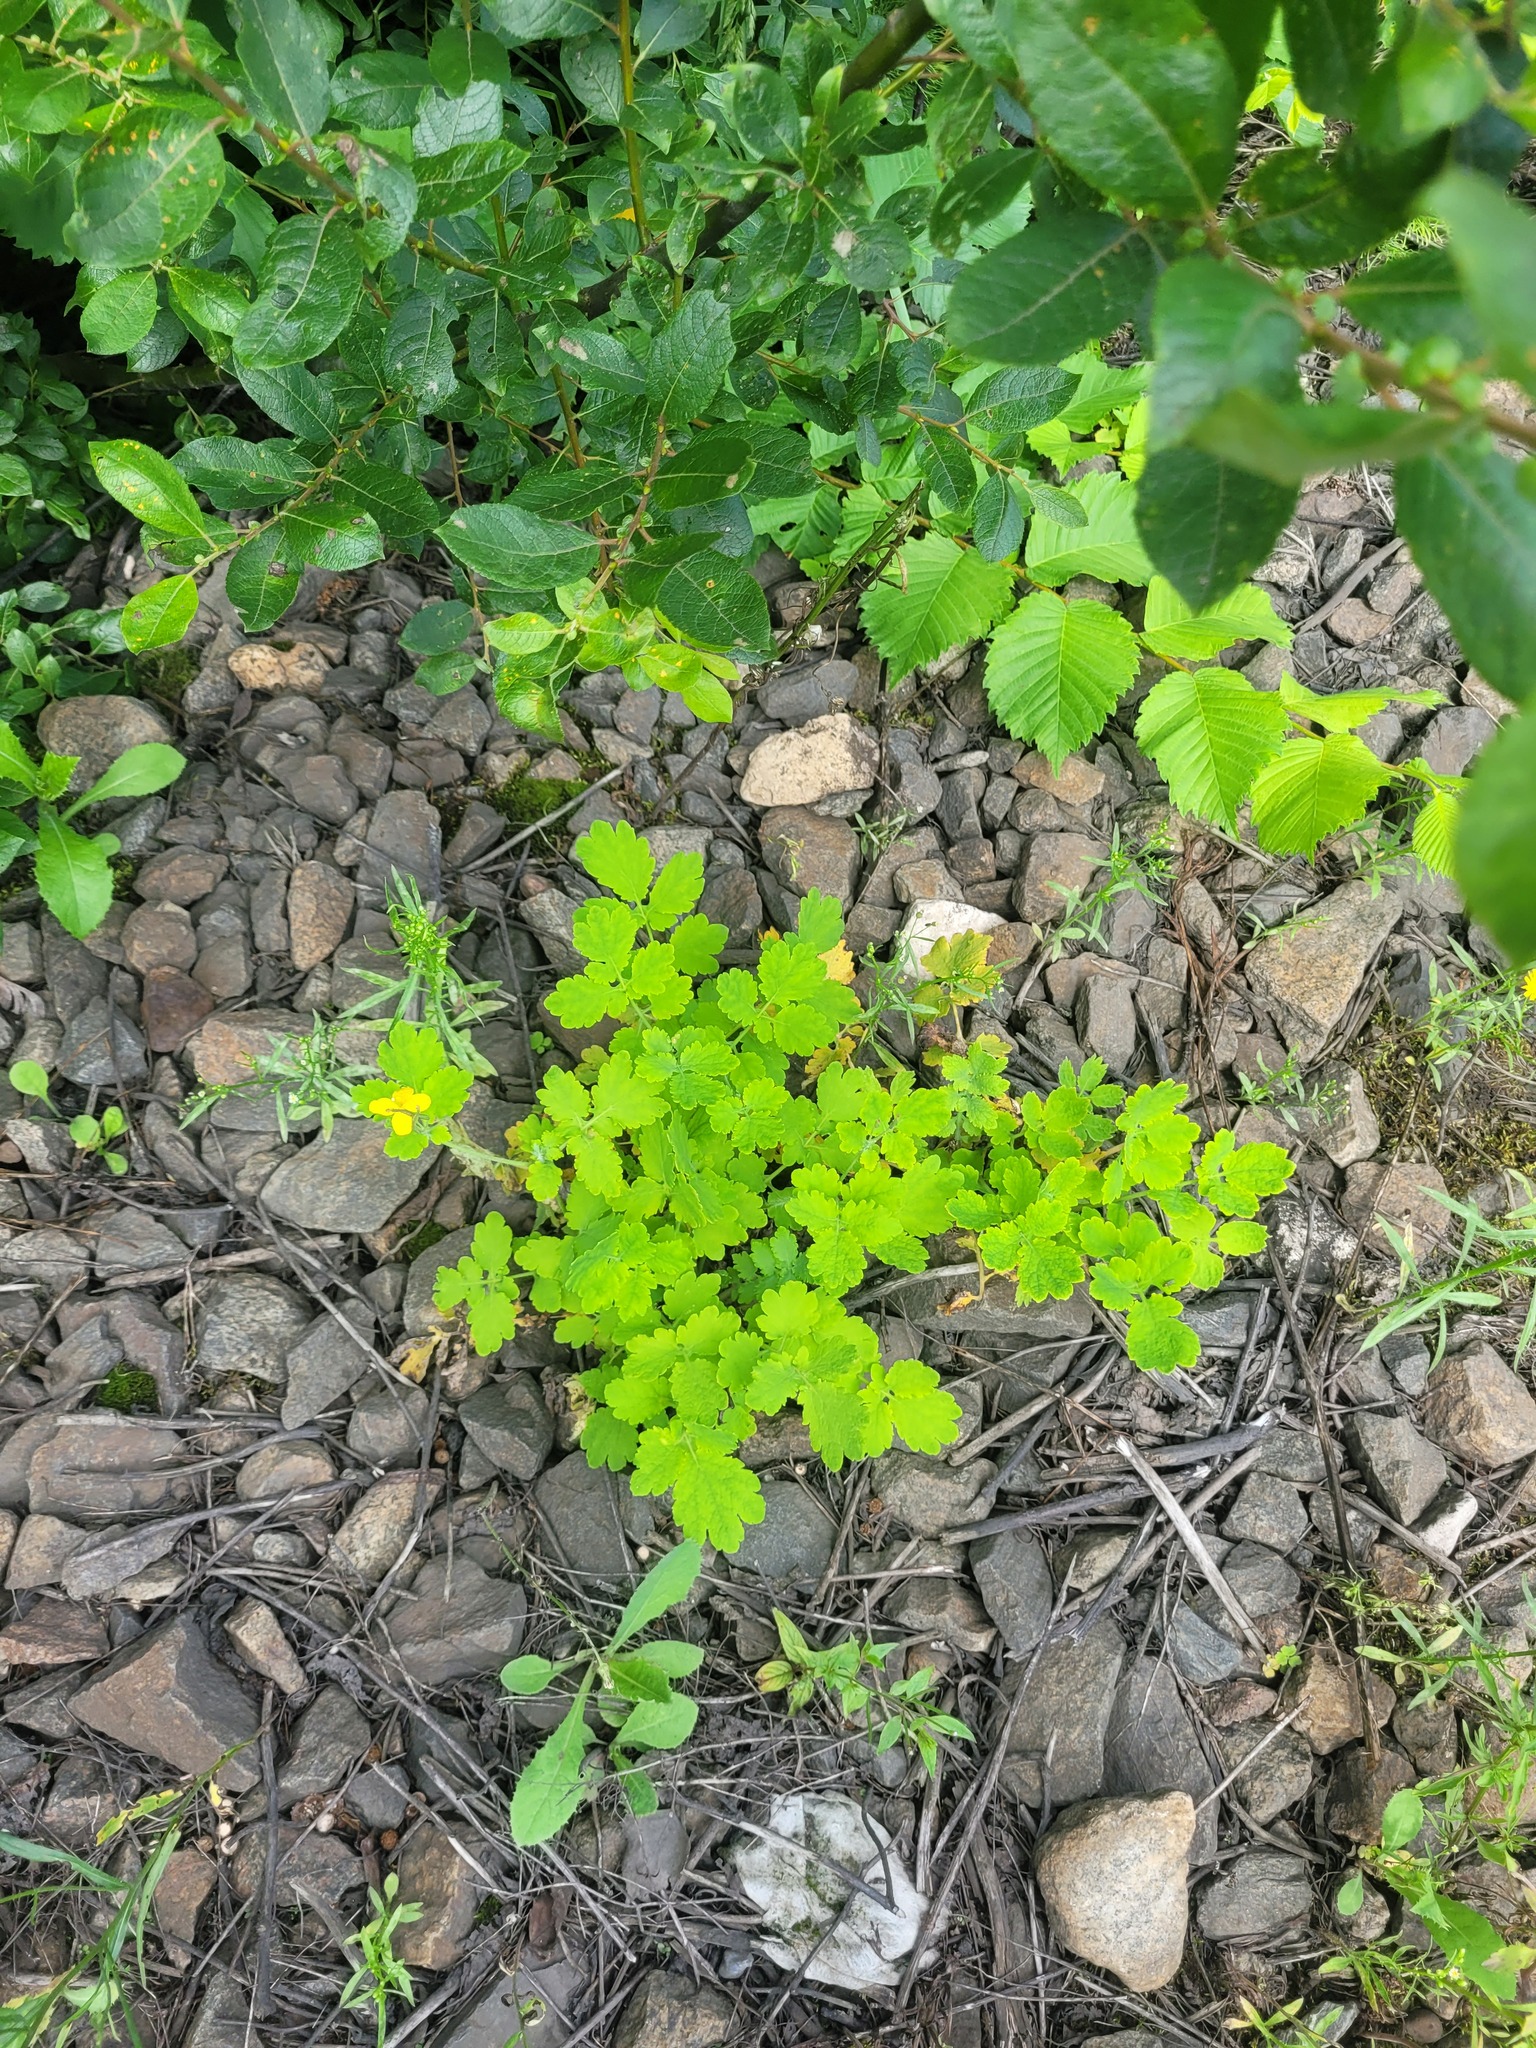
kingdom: Plantae
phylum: Tracheophyta
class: Magnoliopsida
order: Ranunculales
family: Papaveraceae
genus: Chelidonium
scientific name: Chelidonium majus
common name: Greater celandine
